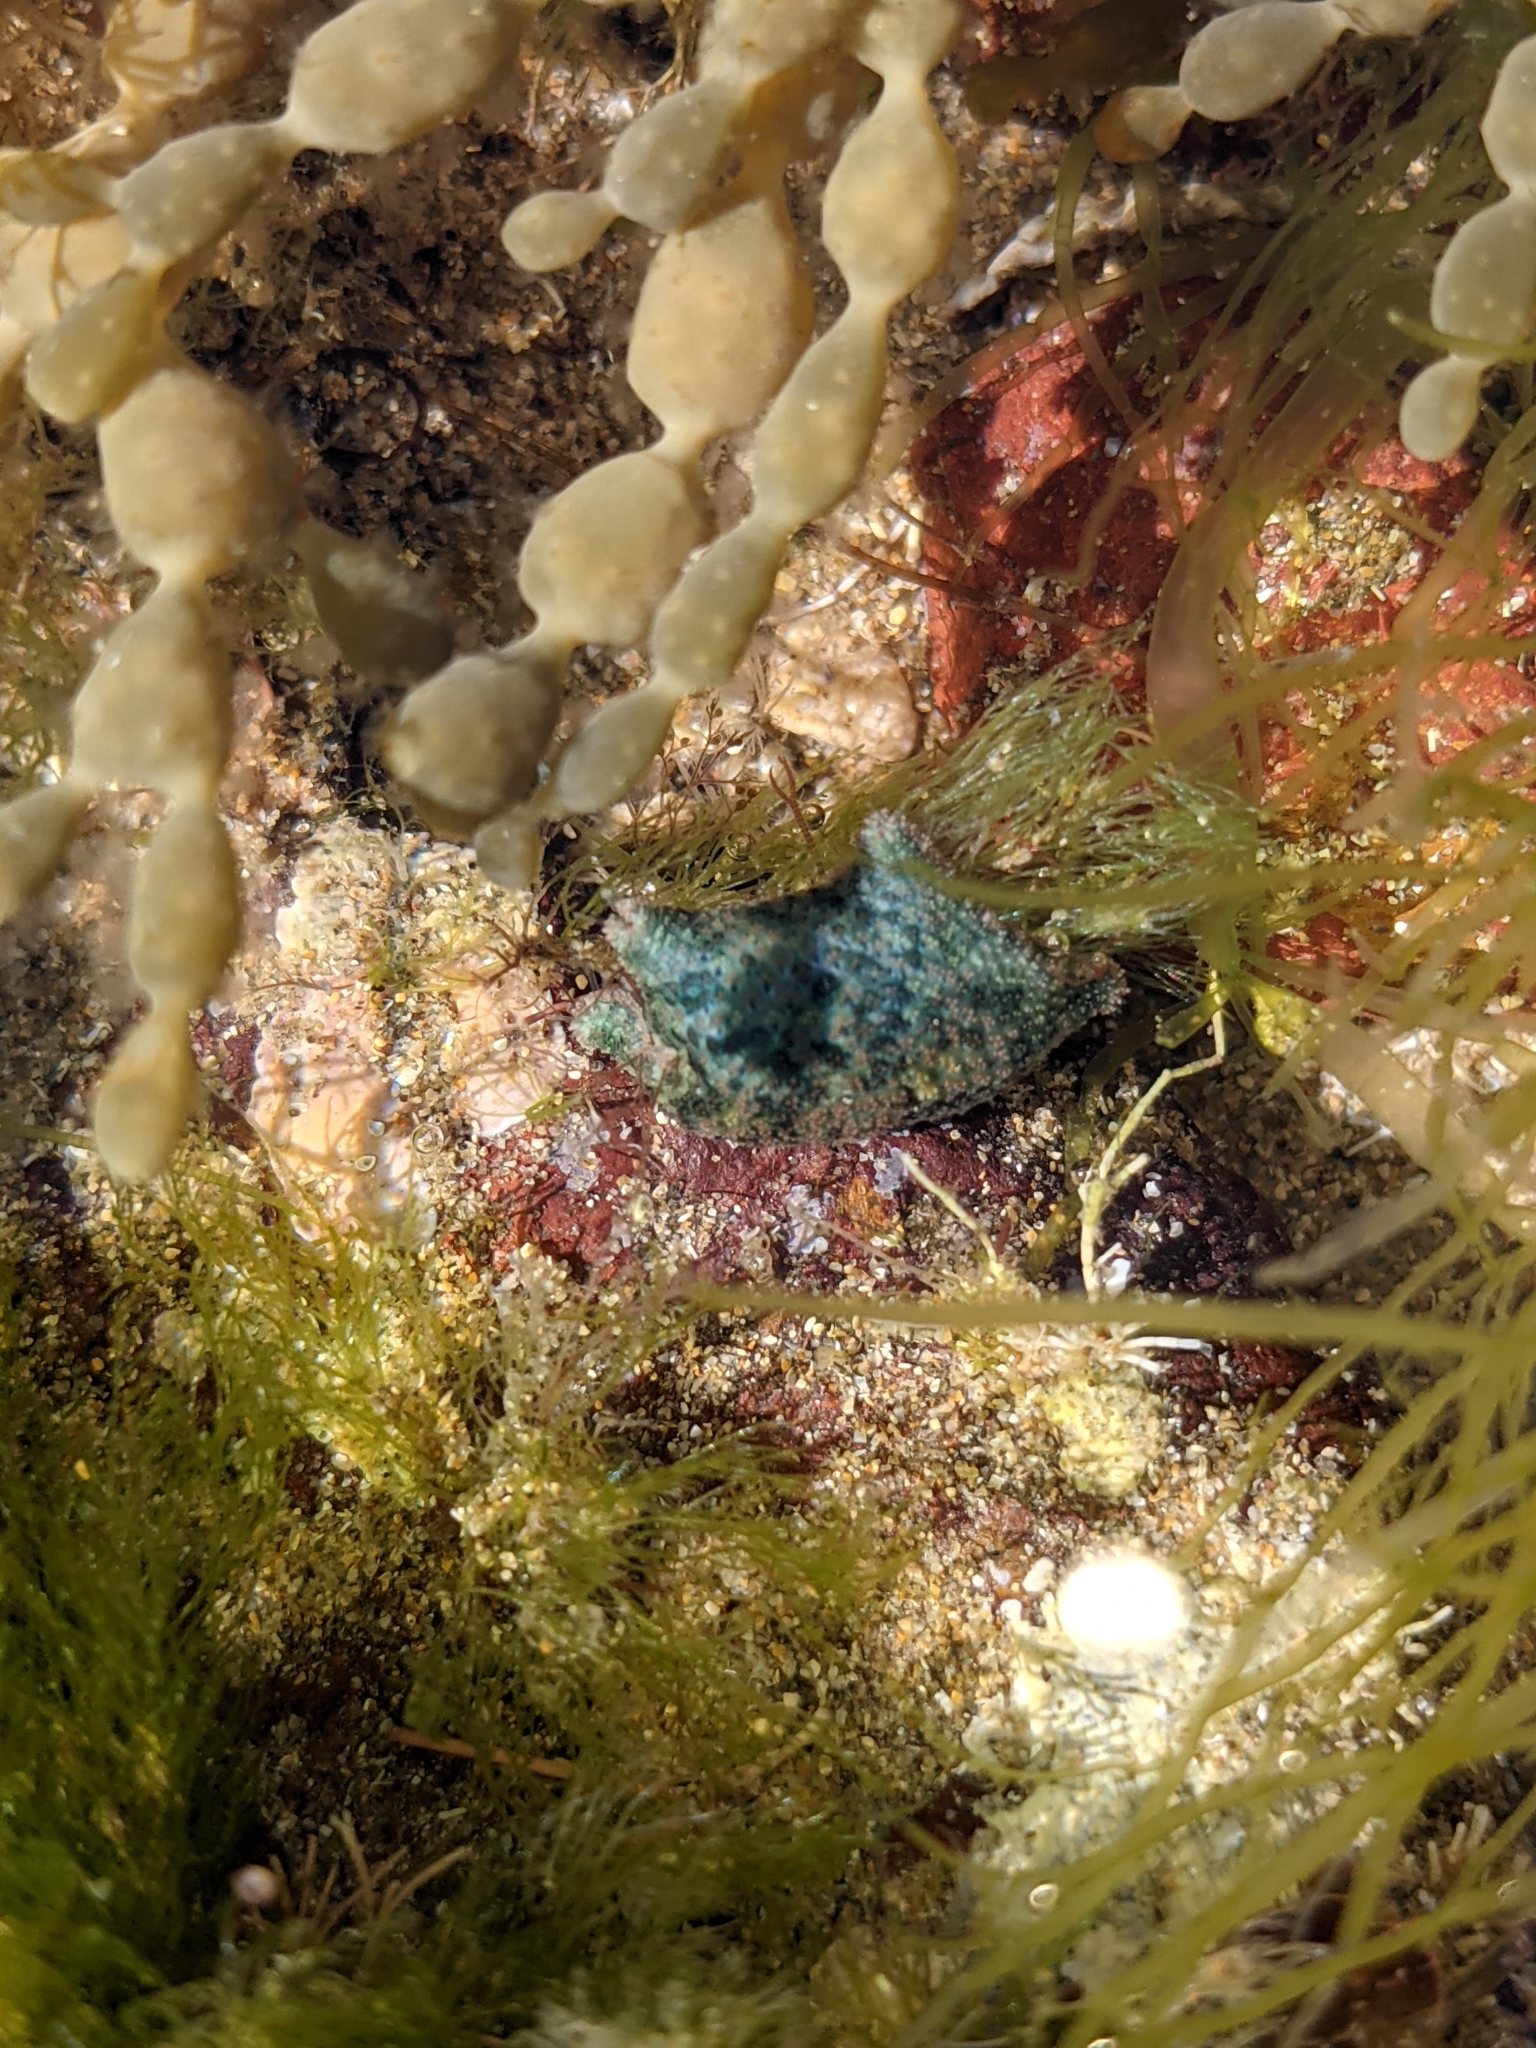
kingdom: Animalia
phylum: Echinodermata
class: Asteroidea
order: Valvatida
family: Asterinidae
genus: Parvulastra
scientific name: Parvulastra exigua
